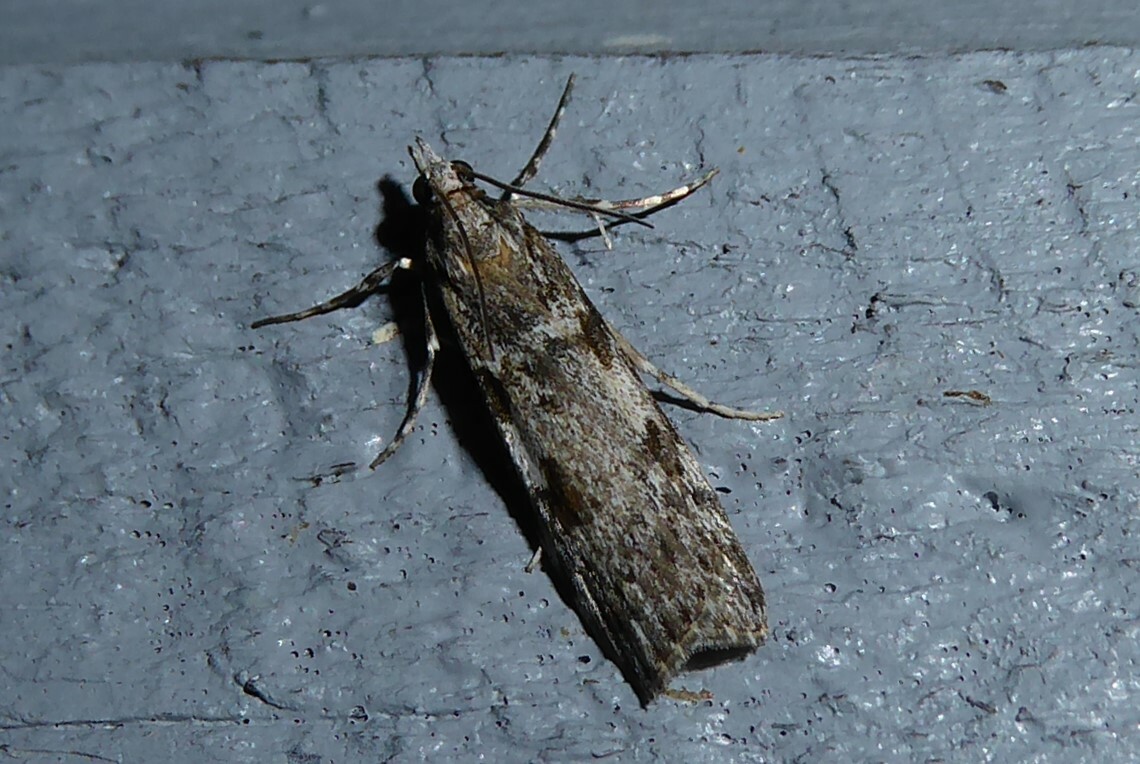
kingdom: Animalia
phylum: Arthropoda
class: Insecta
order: Lepidoptera
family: Crambidae
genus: Scoparia
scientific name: Scoparia halopis
